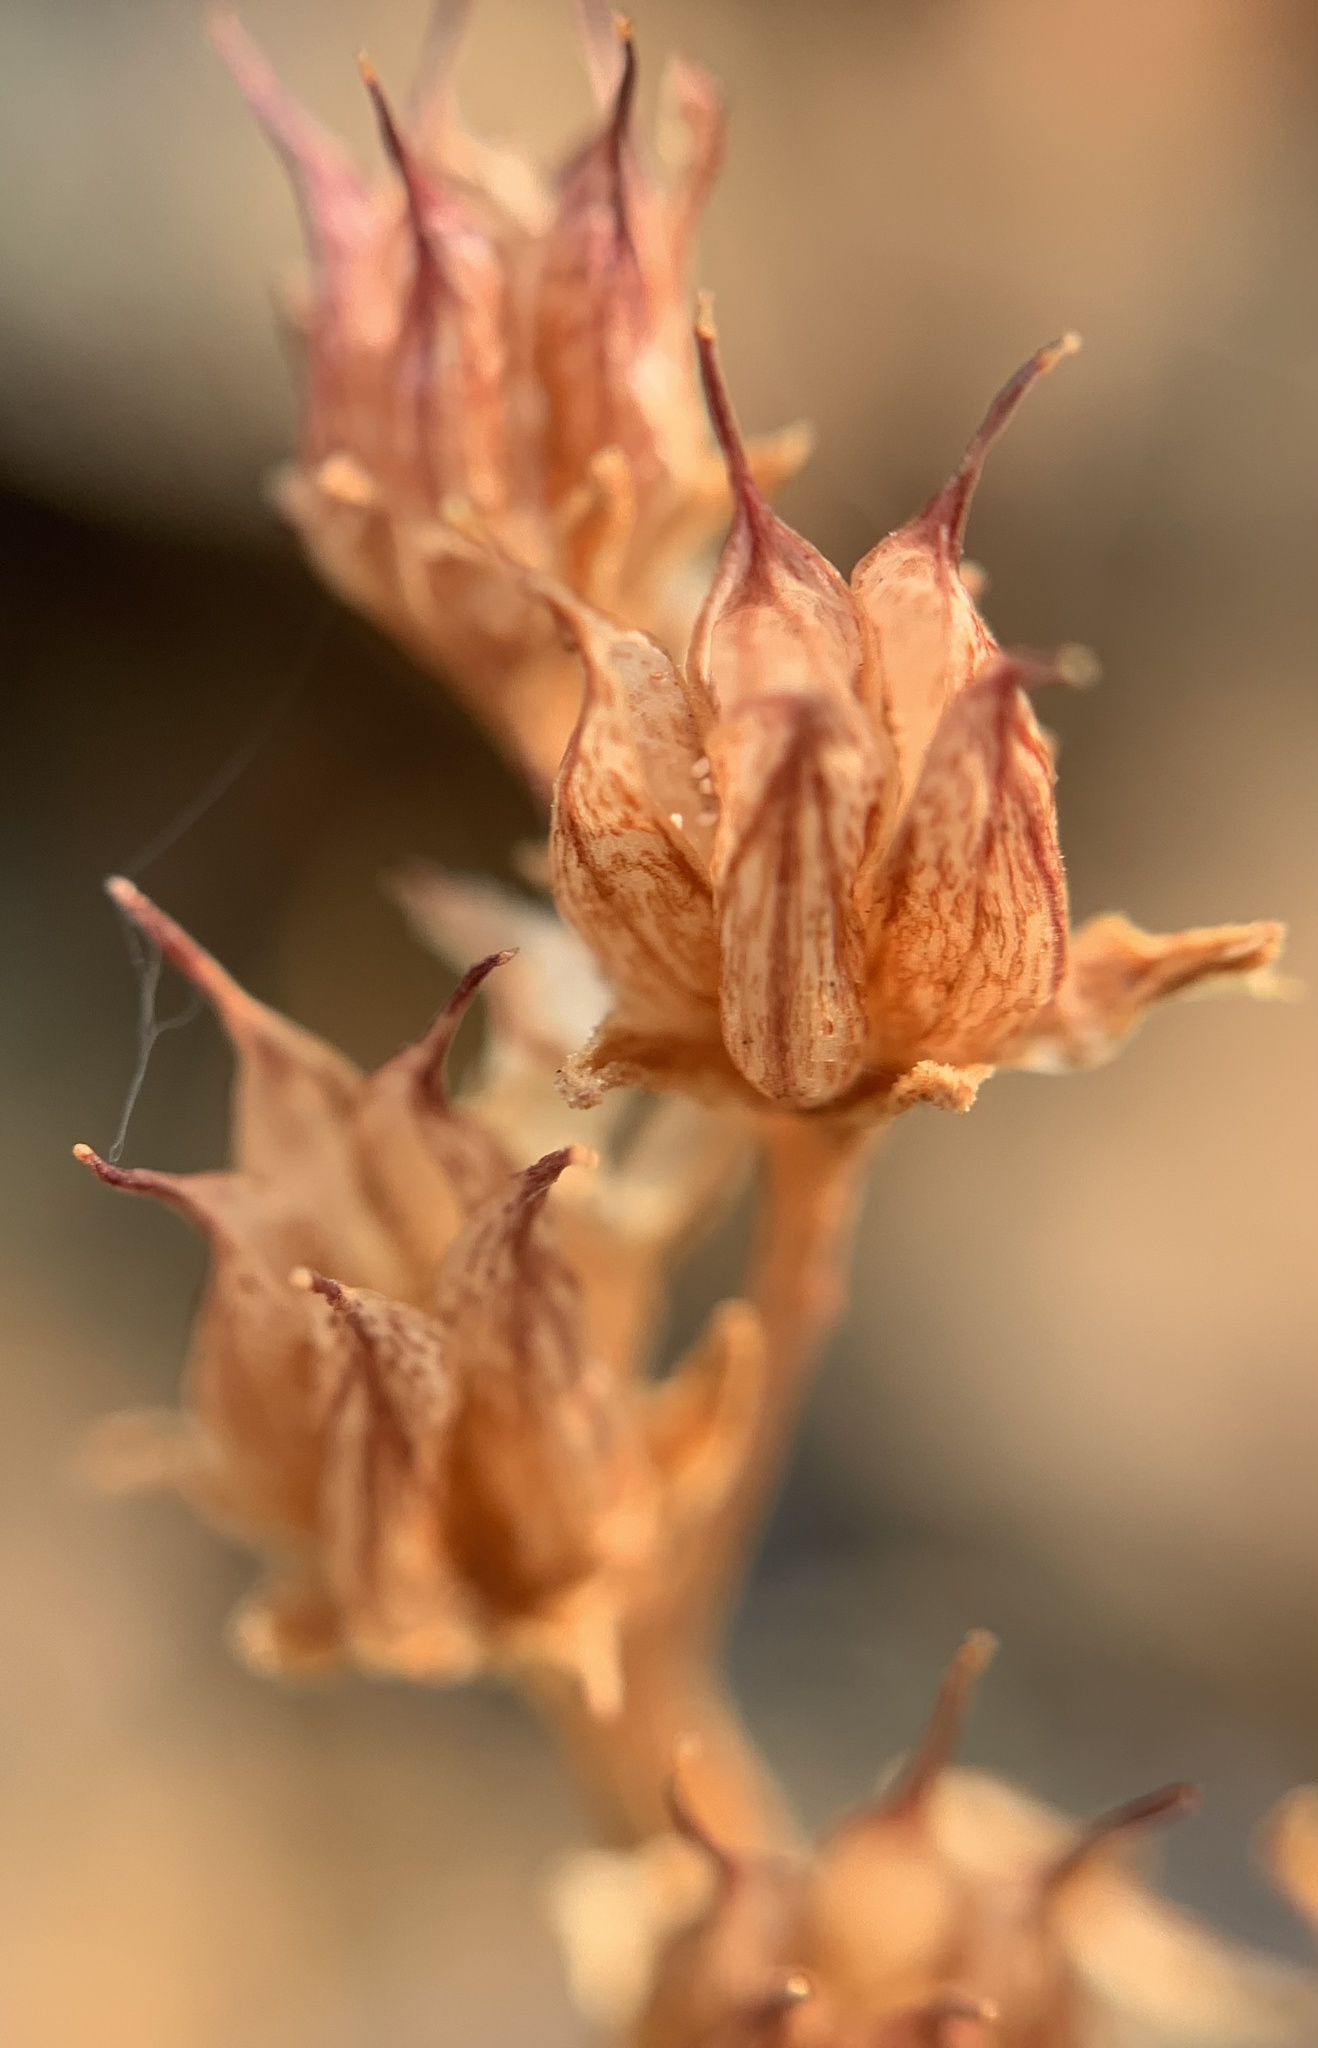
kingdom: Plantae
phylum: Tracheophyta
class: Magnoliopsida
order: Saxifragales
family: Crassulaceae
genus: Sedum
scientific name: Sedum lanceolatum
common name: Common stonecrop
